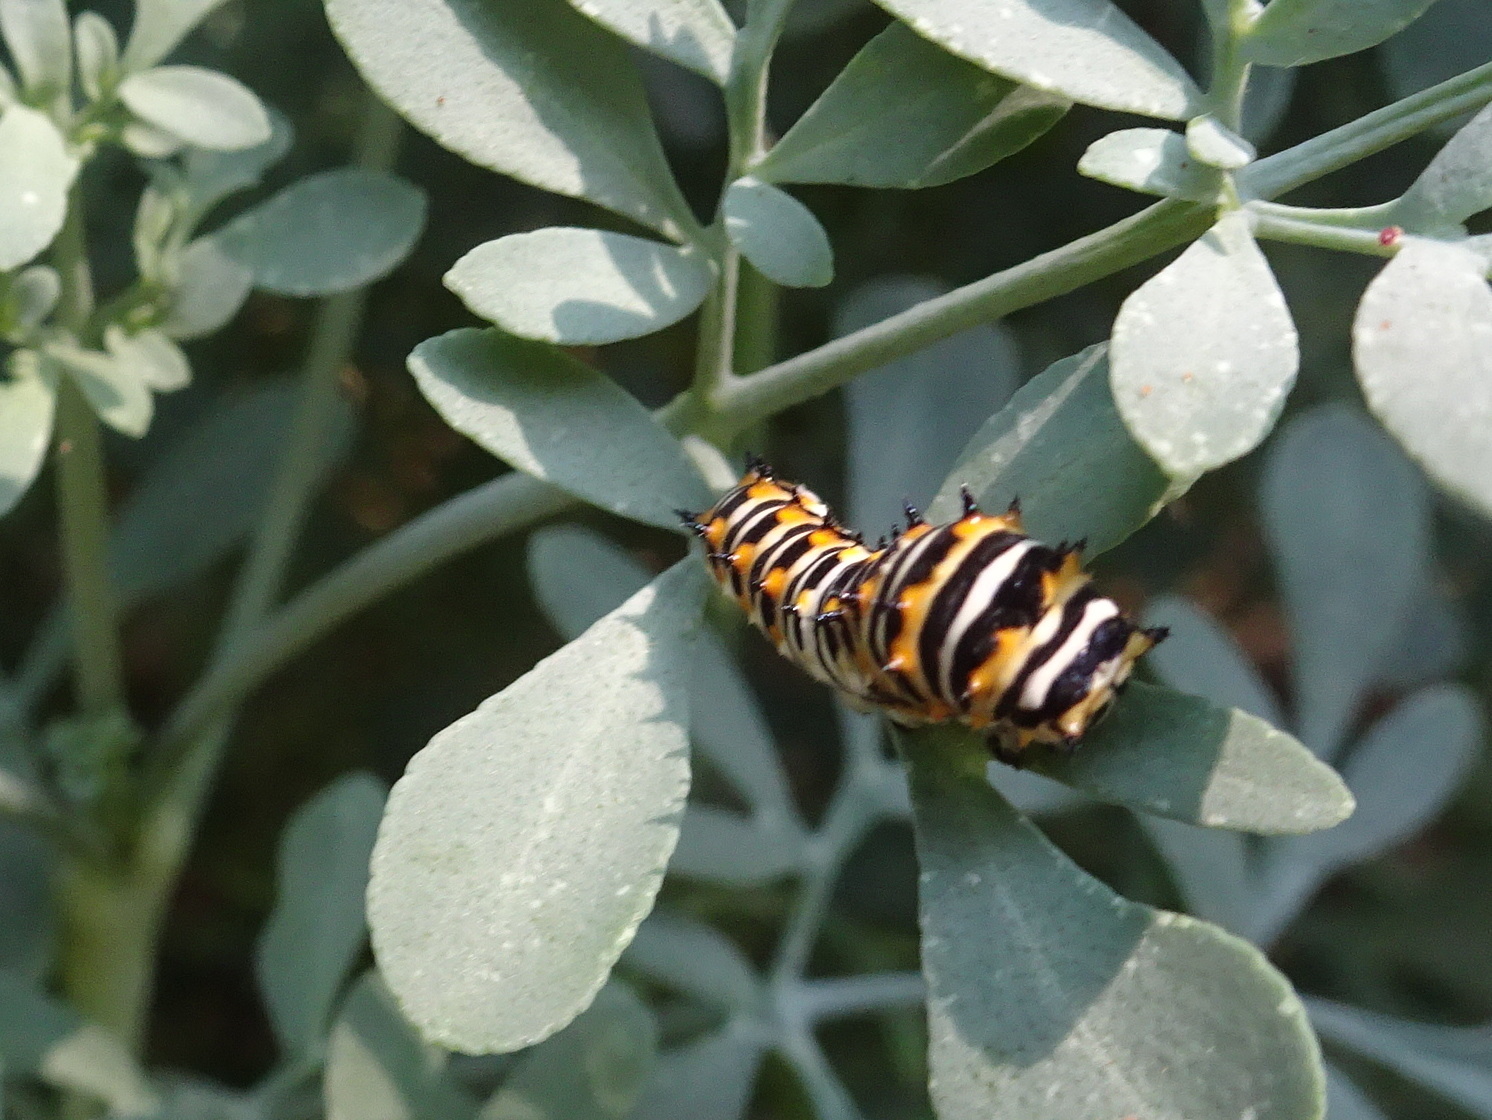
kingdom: Animalia
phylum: Arthropoda
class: Insecta
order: Lepidoptera
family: Papilionidae
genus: Papilio
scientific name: Papilio polyxenes
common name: Black swallowtail
